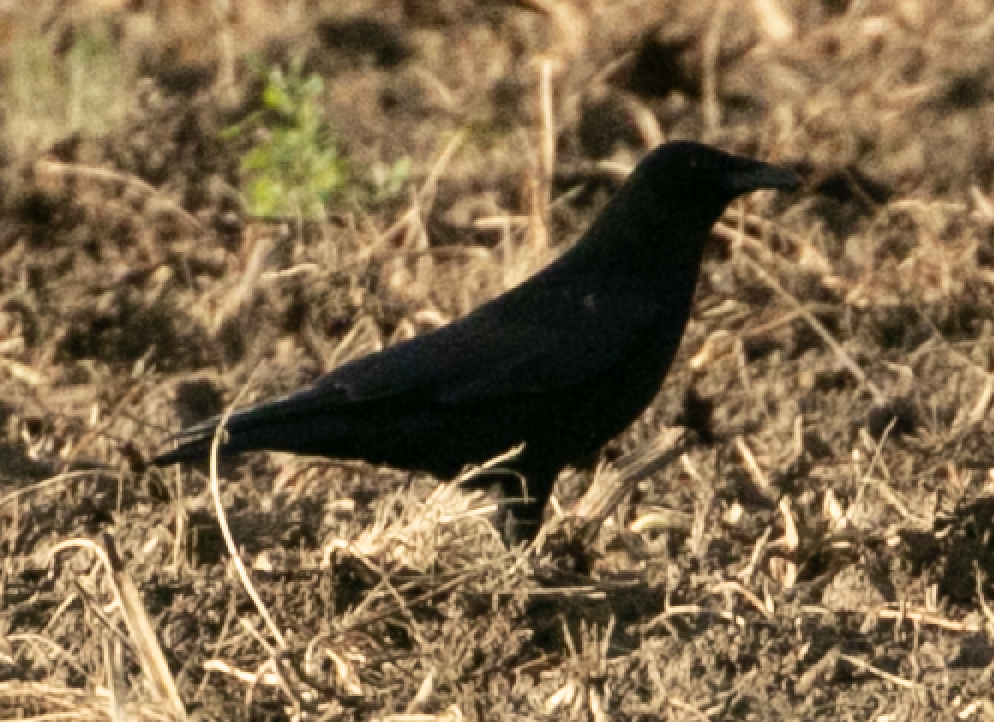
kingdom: Animalia
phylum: Chordata
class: Aves
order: Passeriformes
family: Corvidae
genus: Corvus
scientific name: Corvus corone
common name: Carrion crow
